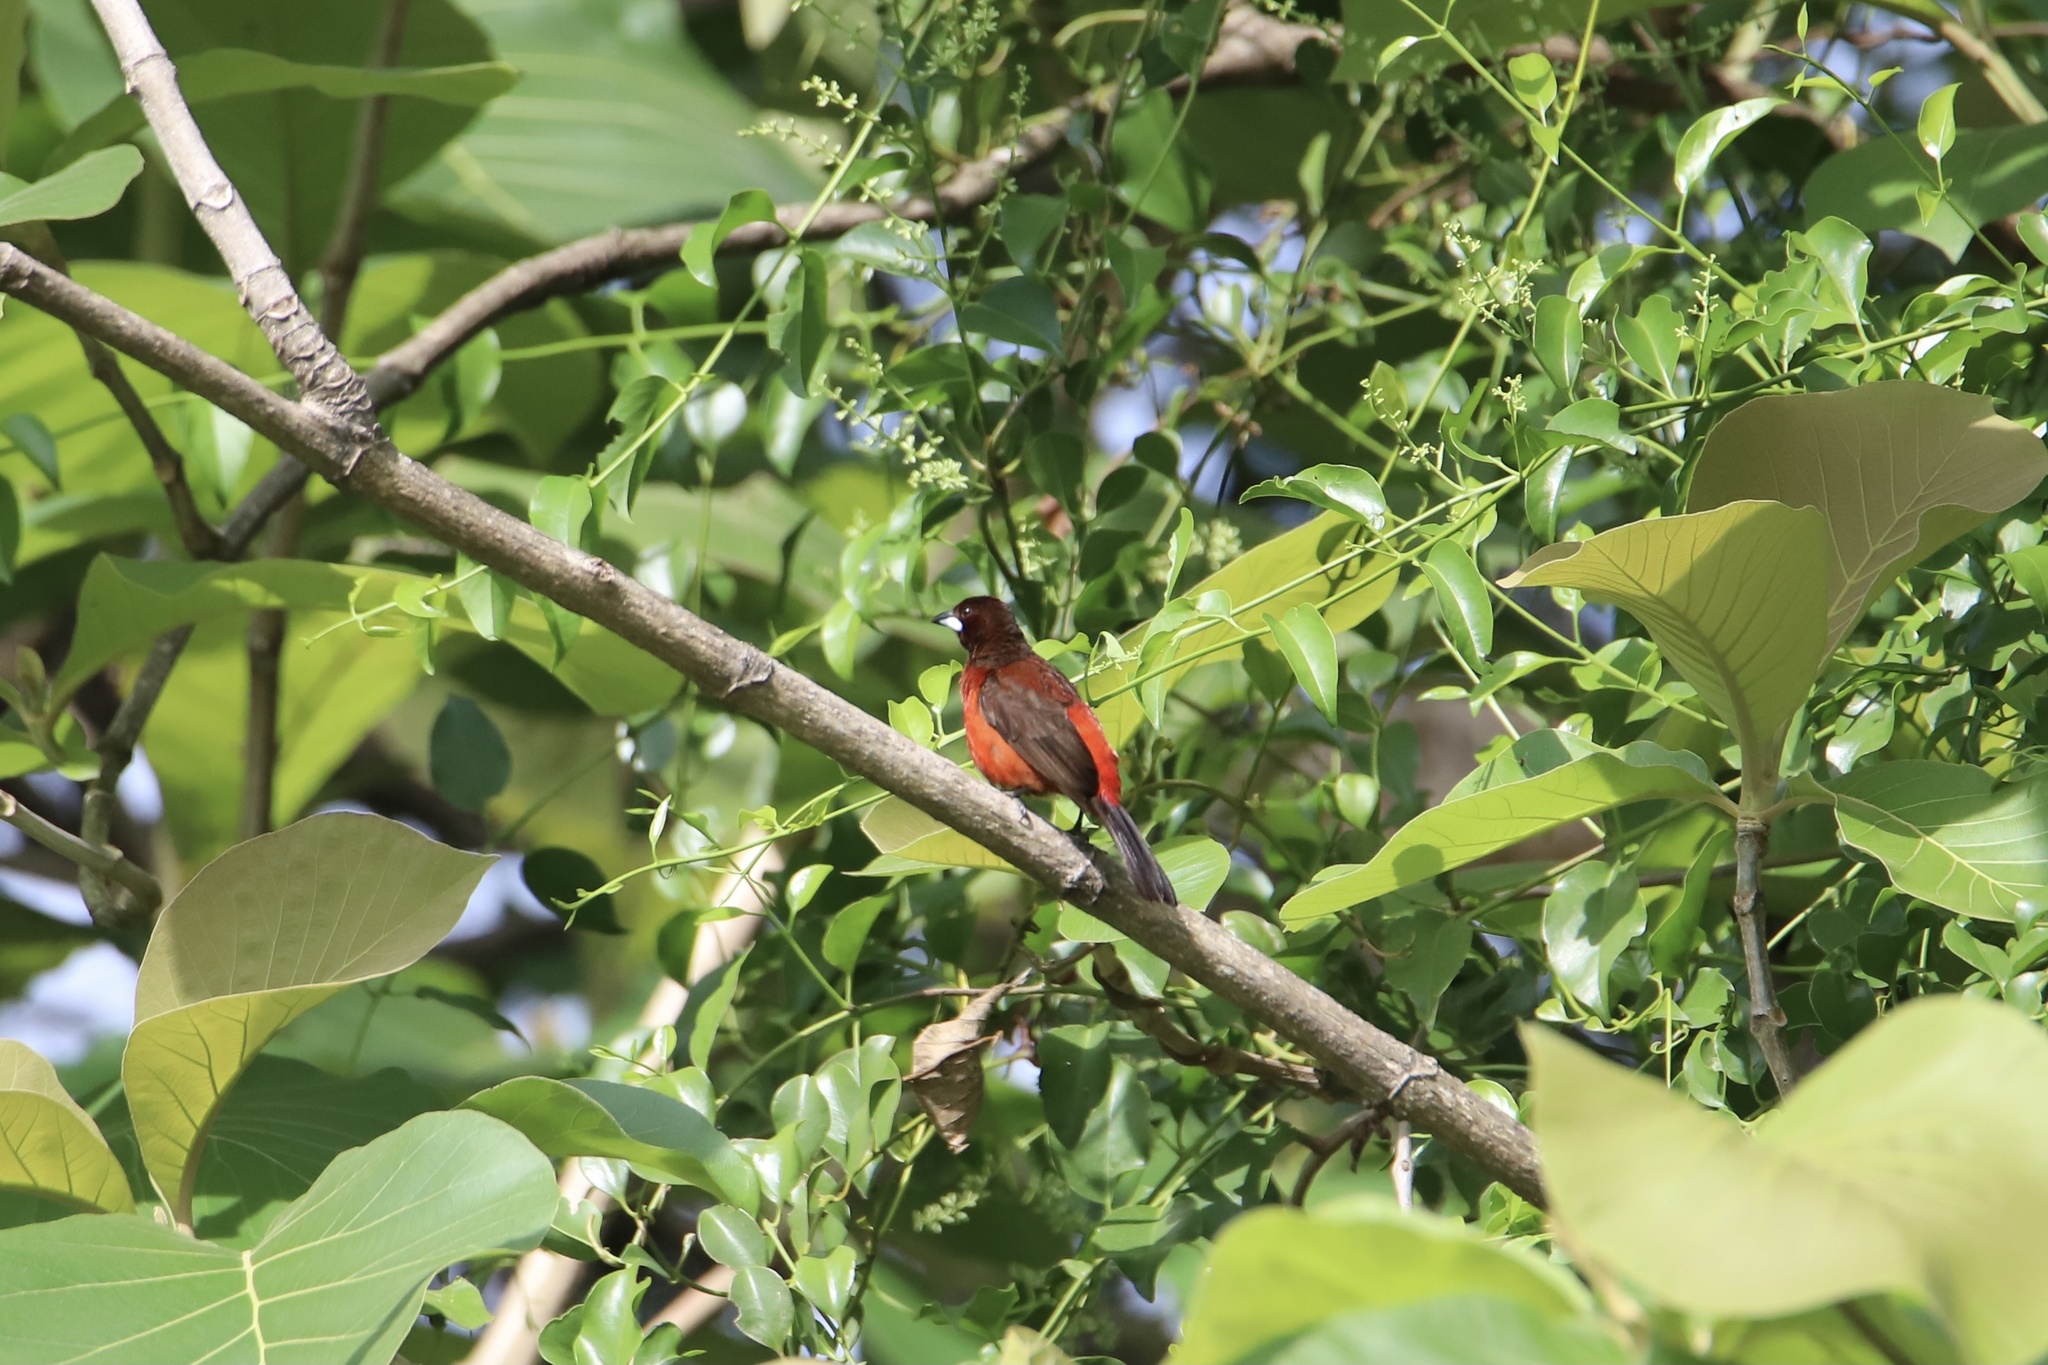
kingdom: Animalia
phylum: Chordata
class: Aves
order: Passeriformes
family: Thraupidae
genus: Ramphocelus
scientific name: Ramphocelus dimidiatus
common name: Crimson-backed tanager
